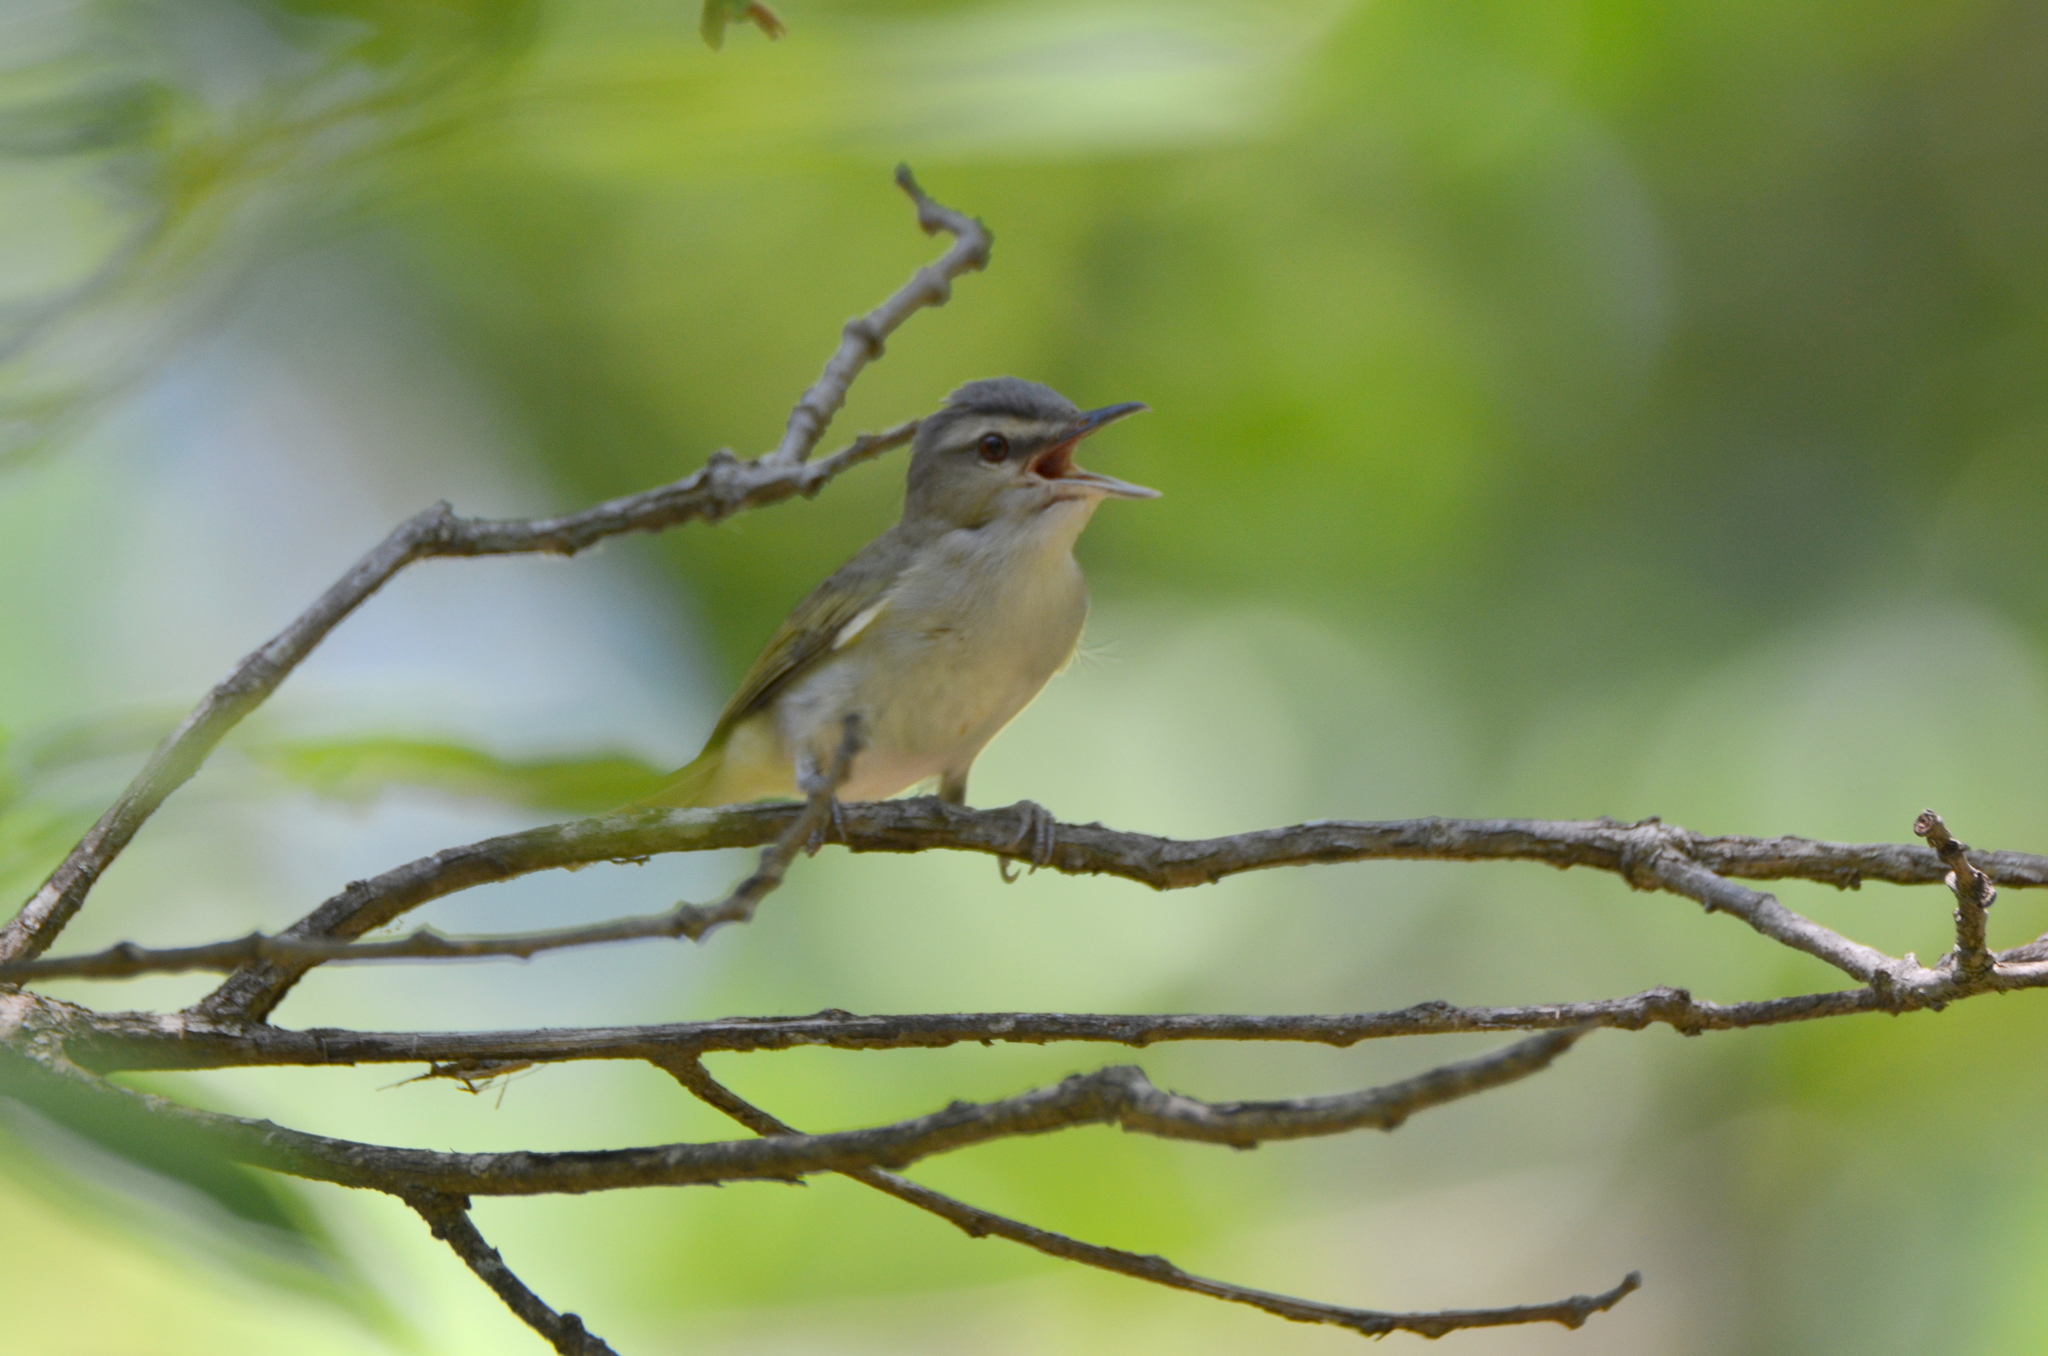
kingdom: Animalia
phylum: Chordata
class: Aves
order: Passeriformes
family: Vireonidae
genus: Vireo
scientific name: Vireo olivaceus
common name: Red-eyed vireo
